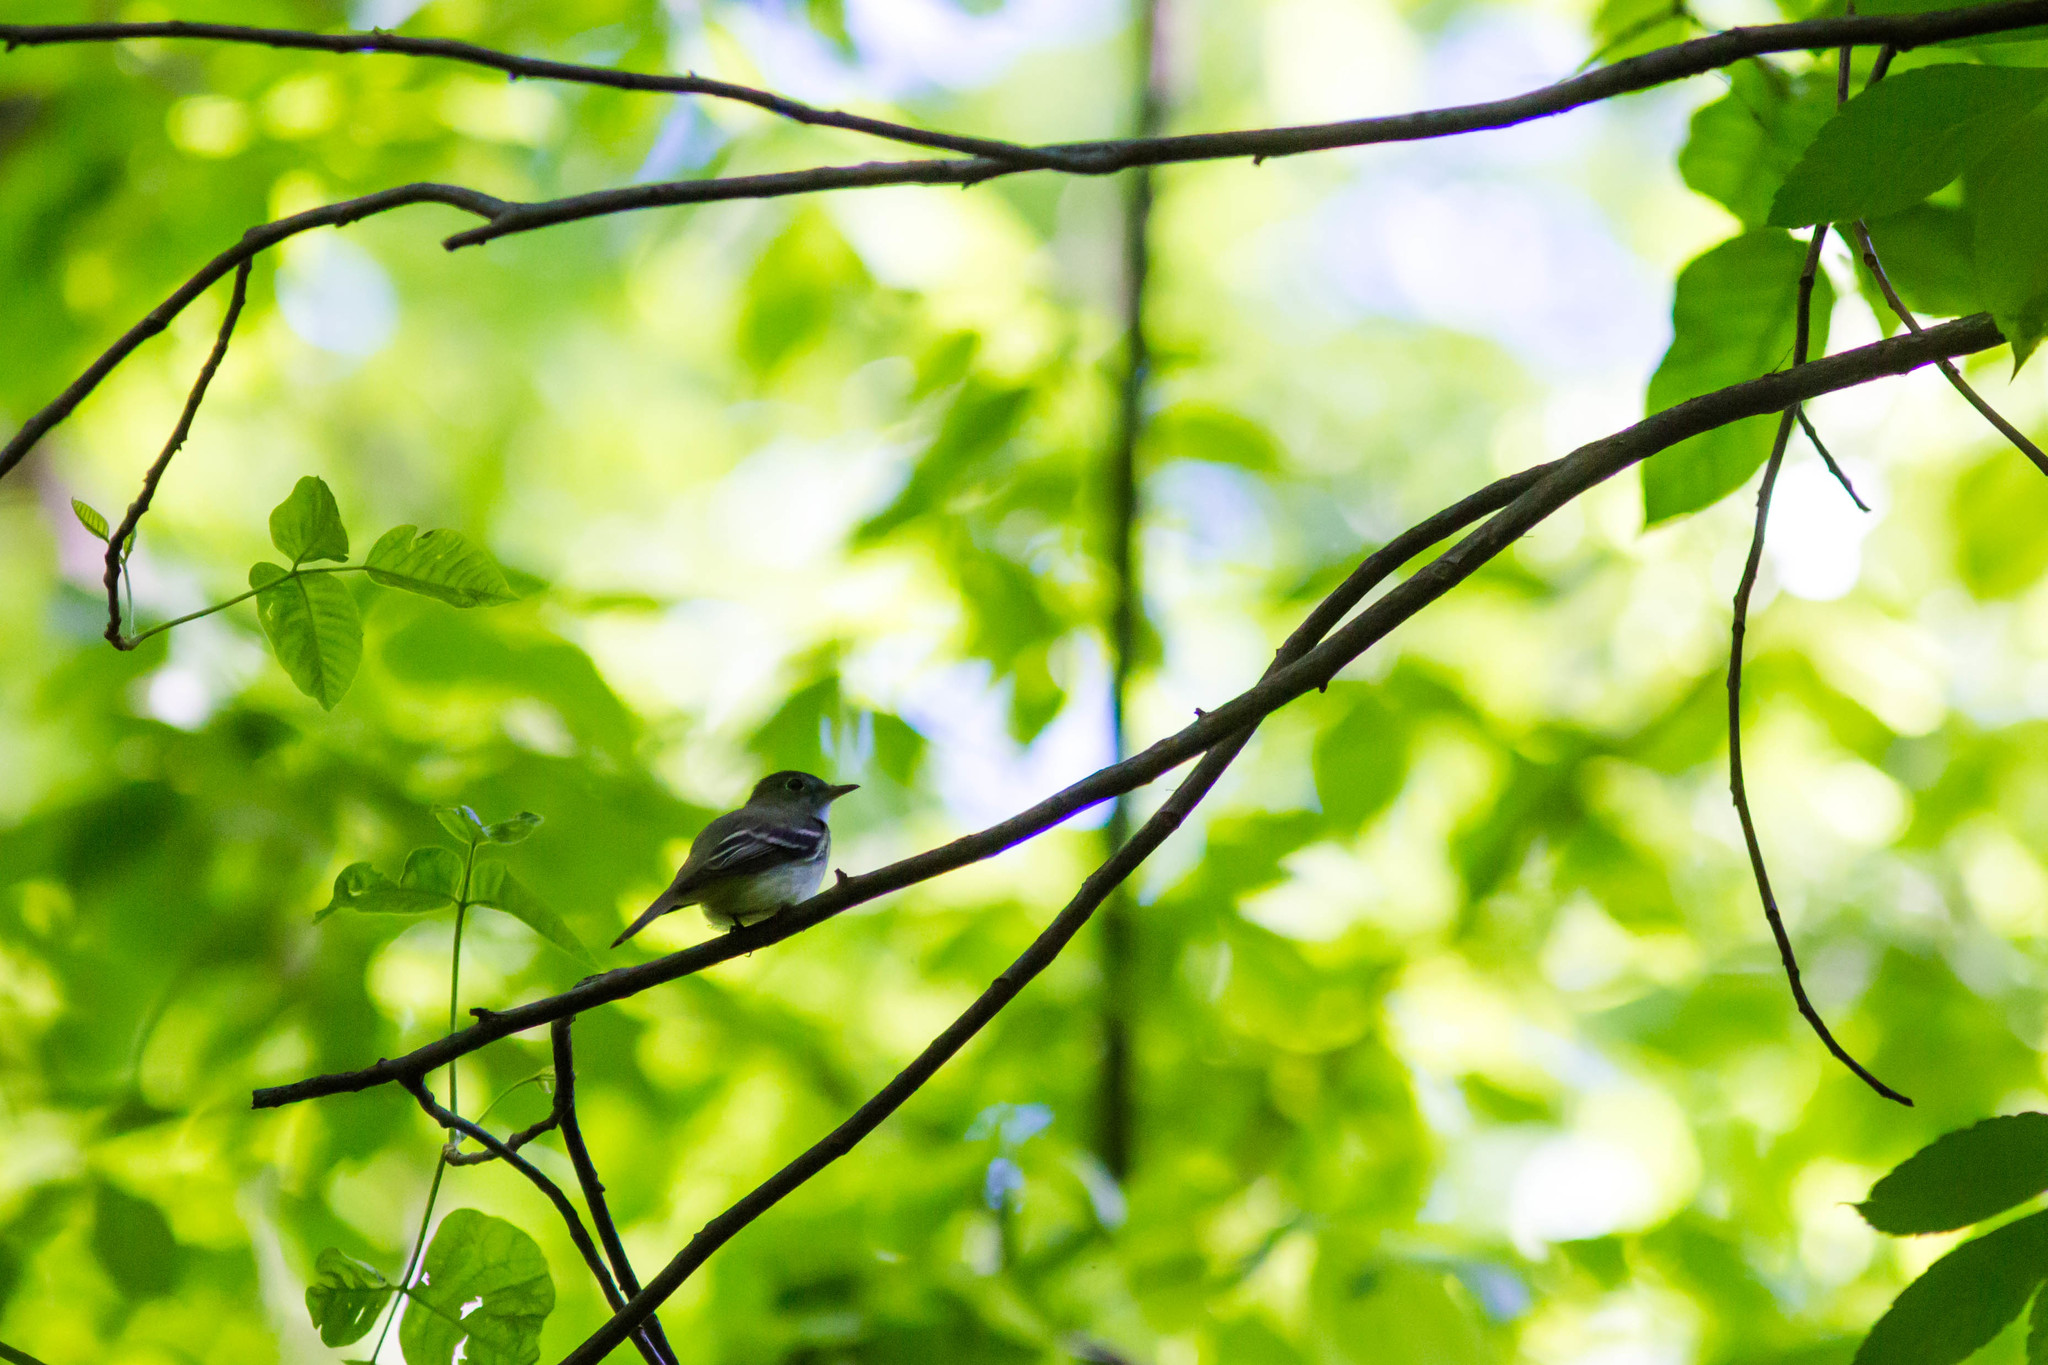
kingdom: Animalia
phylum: Chordata
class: Aves
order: Passeriformes
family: Tyrannidae
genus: Empidonax
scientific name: Empidonax virescens
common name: Acadian flycatcher
